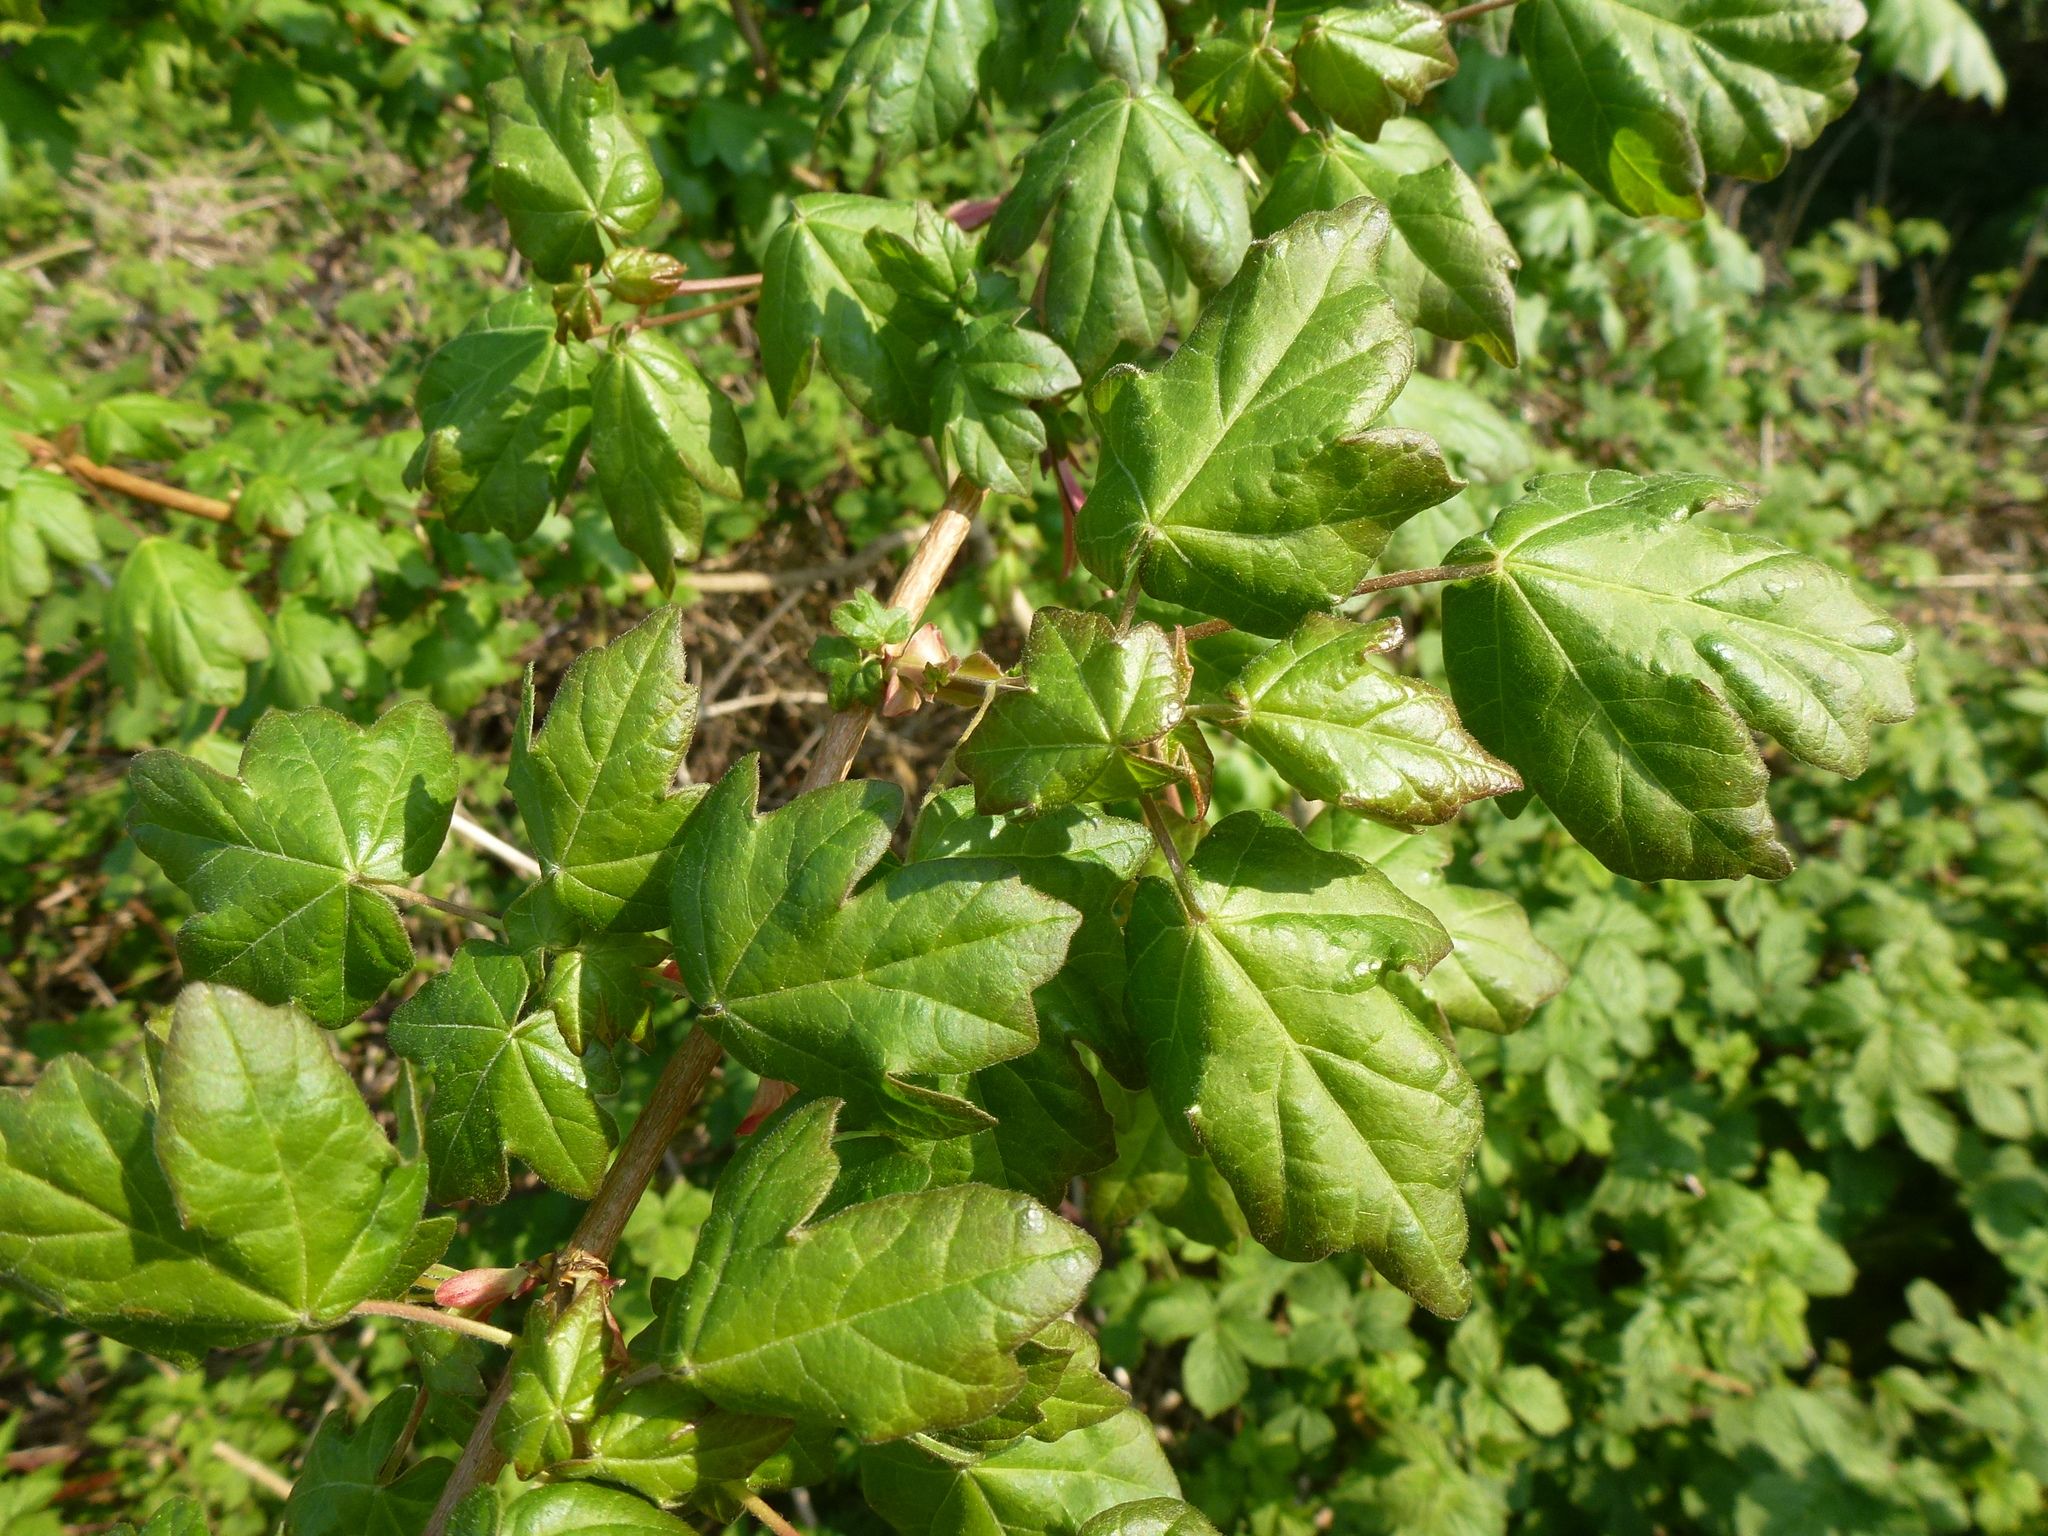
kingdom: Plantae
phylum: Tracheophyta
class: Magnoliopsida
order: Sapindales
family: Sapindaceae
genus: Acer
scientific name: Acer campestre
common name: Field maple
